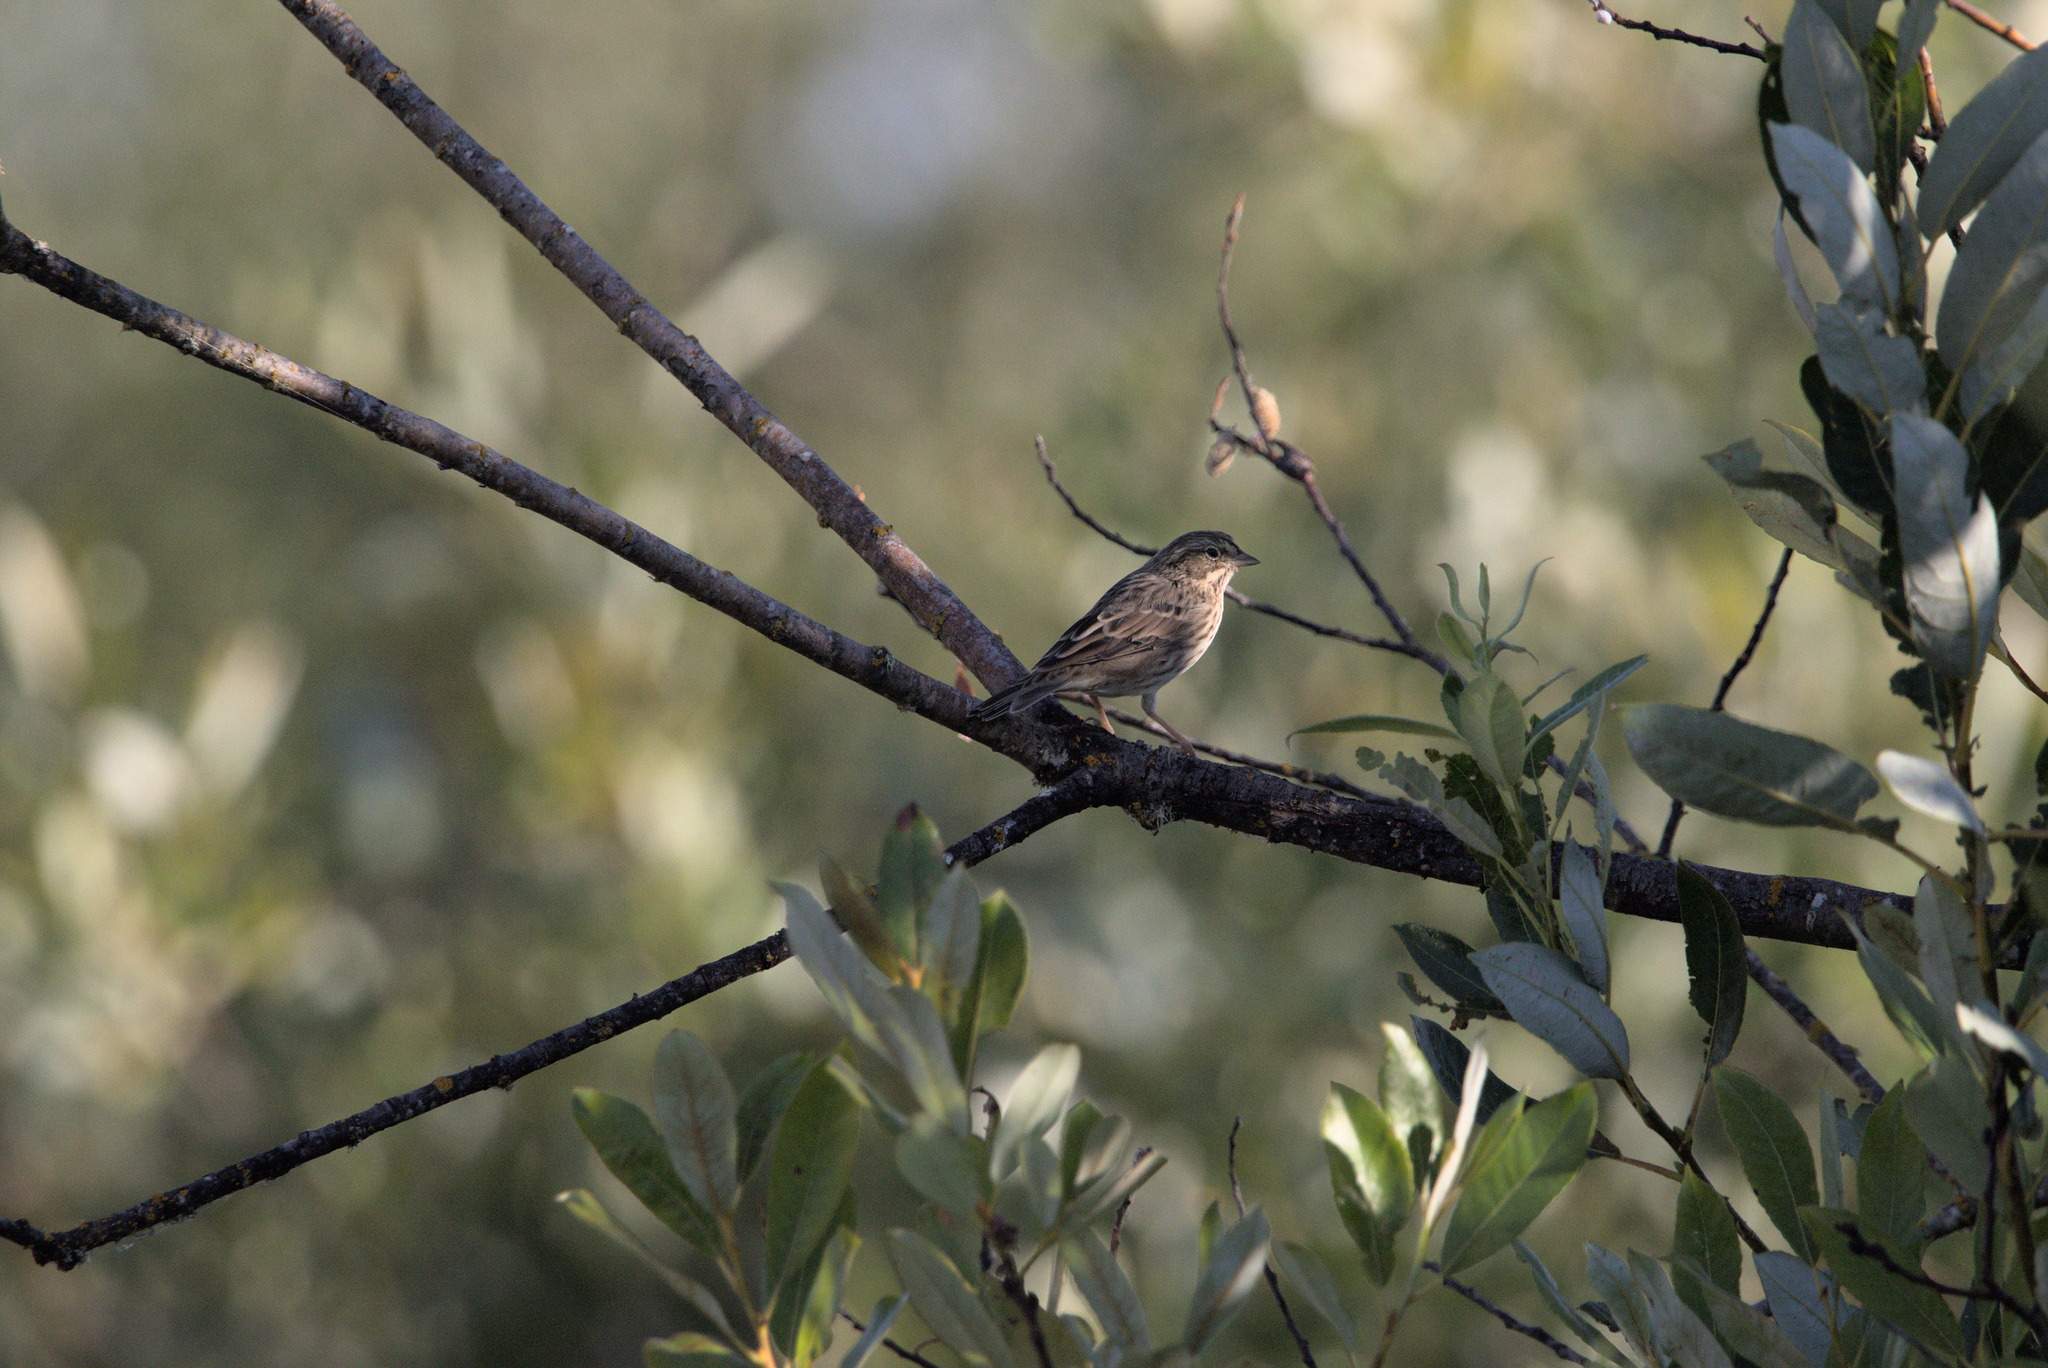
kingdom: Animalia
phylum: Chordata
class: Aves
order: Passeriformes
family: Passerellidae
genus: Passerculus
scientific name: Passerculus sandwichensis
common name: Savannah sparrow
